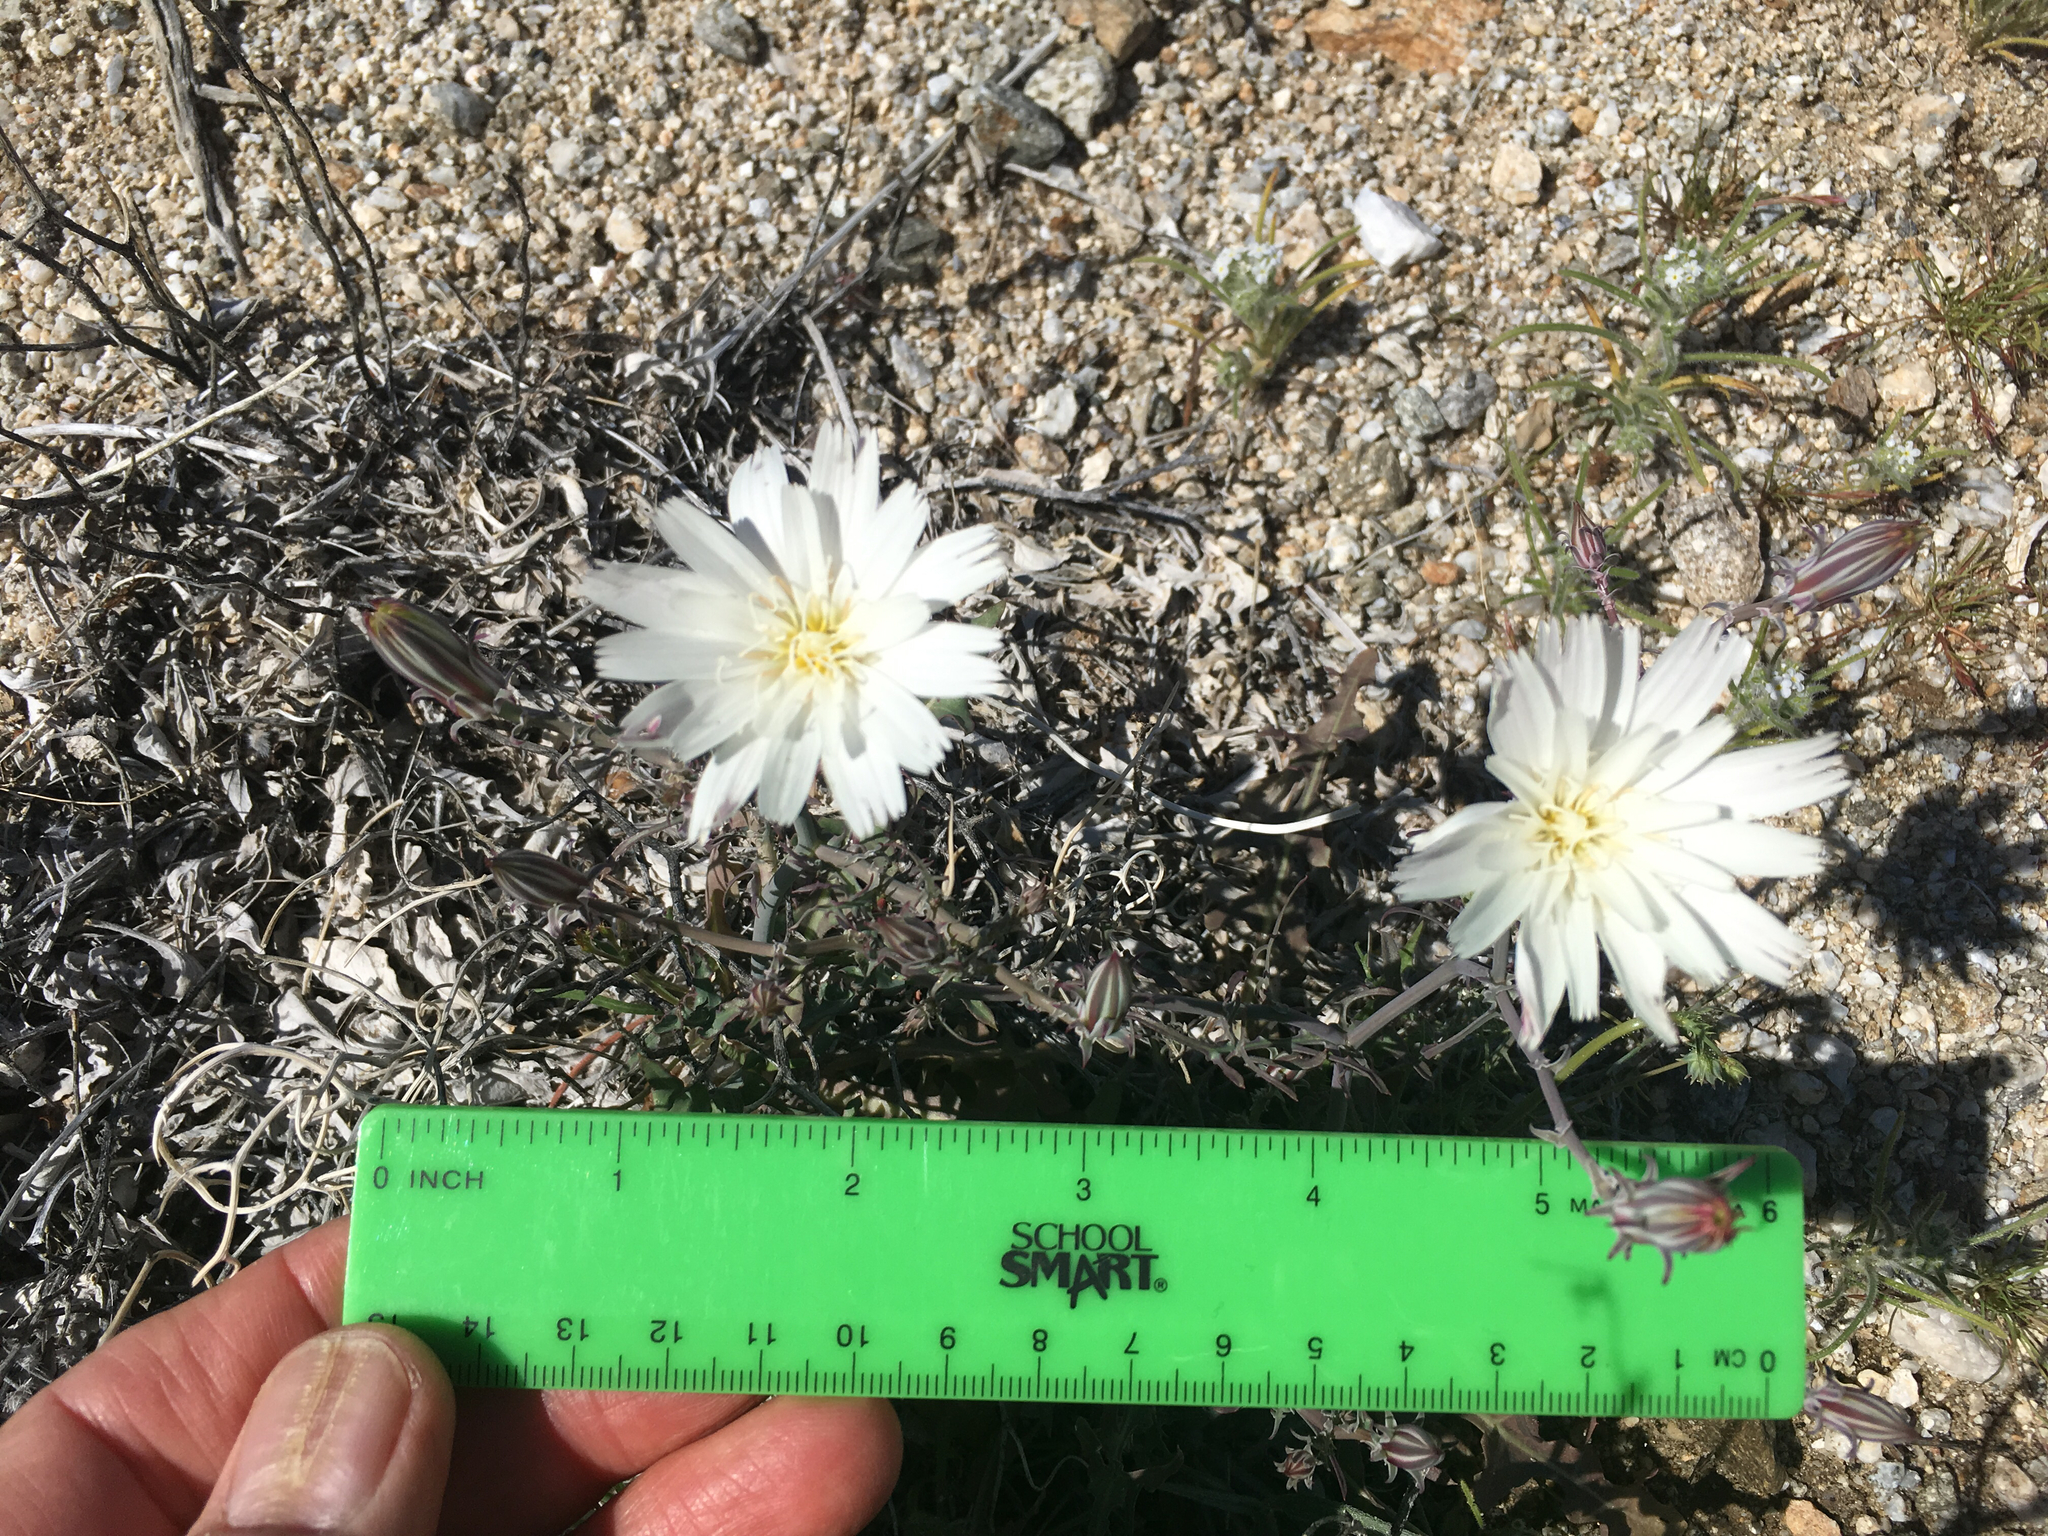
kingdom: Plantae
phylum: Tracheophyta
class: Magnoliopsida
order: Asterales
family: Asteraceae
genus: Rafinesquia
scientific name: Rafinesquia neomexicana
